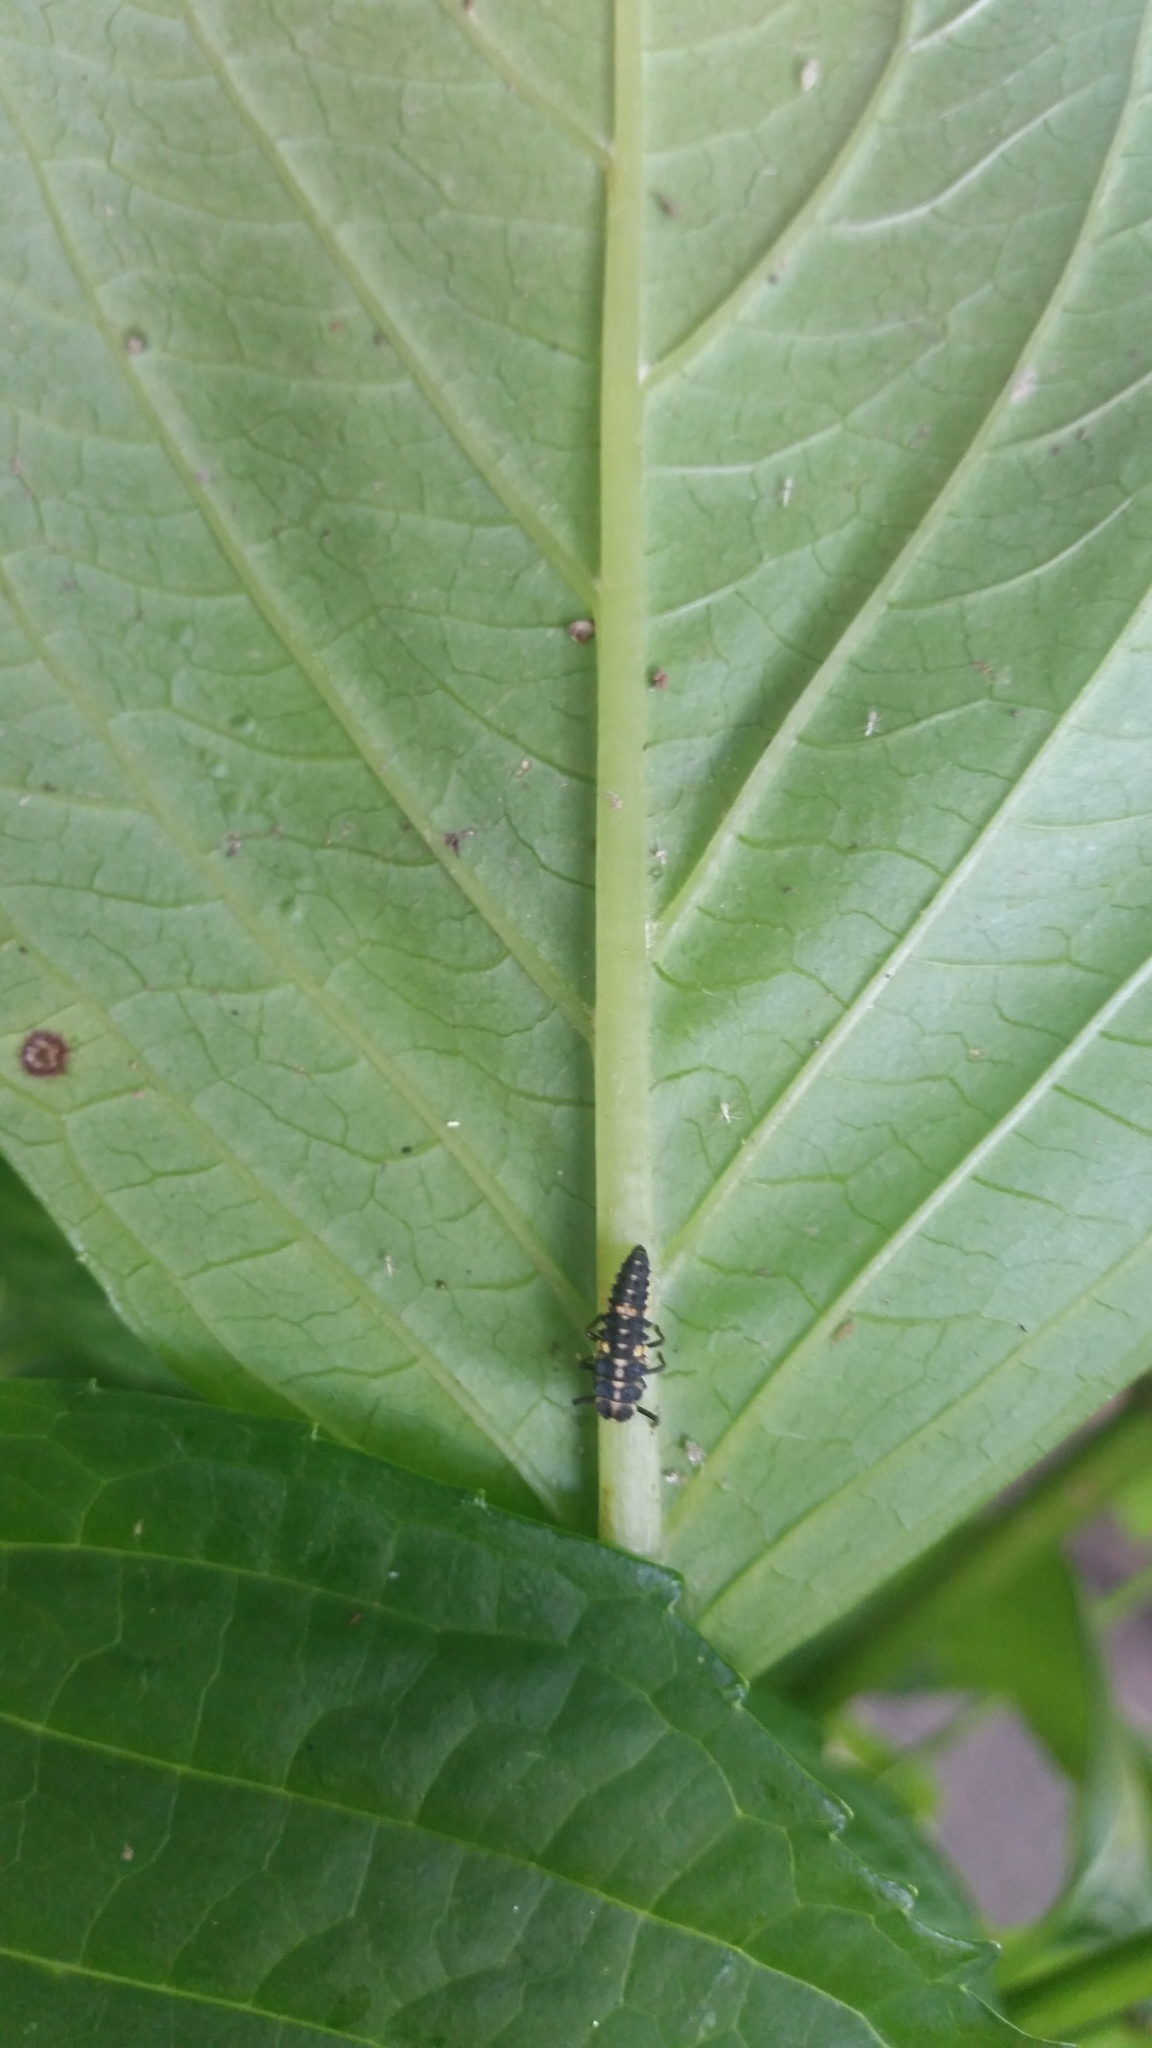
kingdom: Animalia
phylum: Arthropoda
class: Insecta
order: Coleoptera
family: Coccinellidae
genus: Cleobora
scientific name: Cleobora
